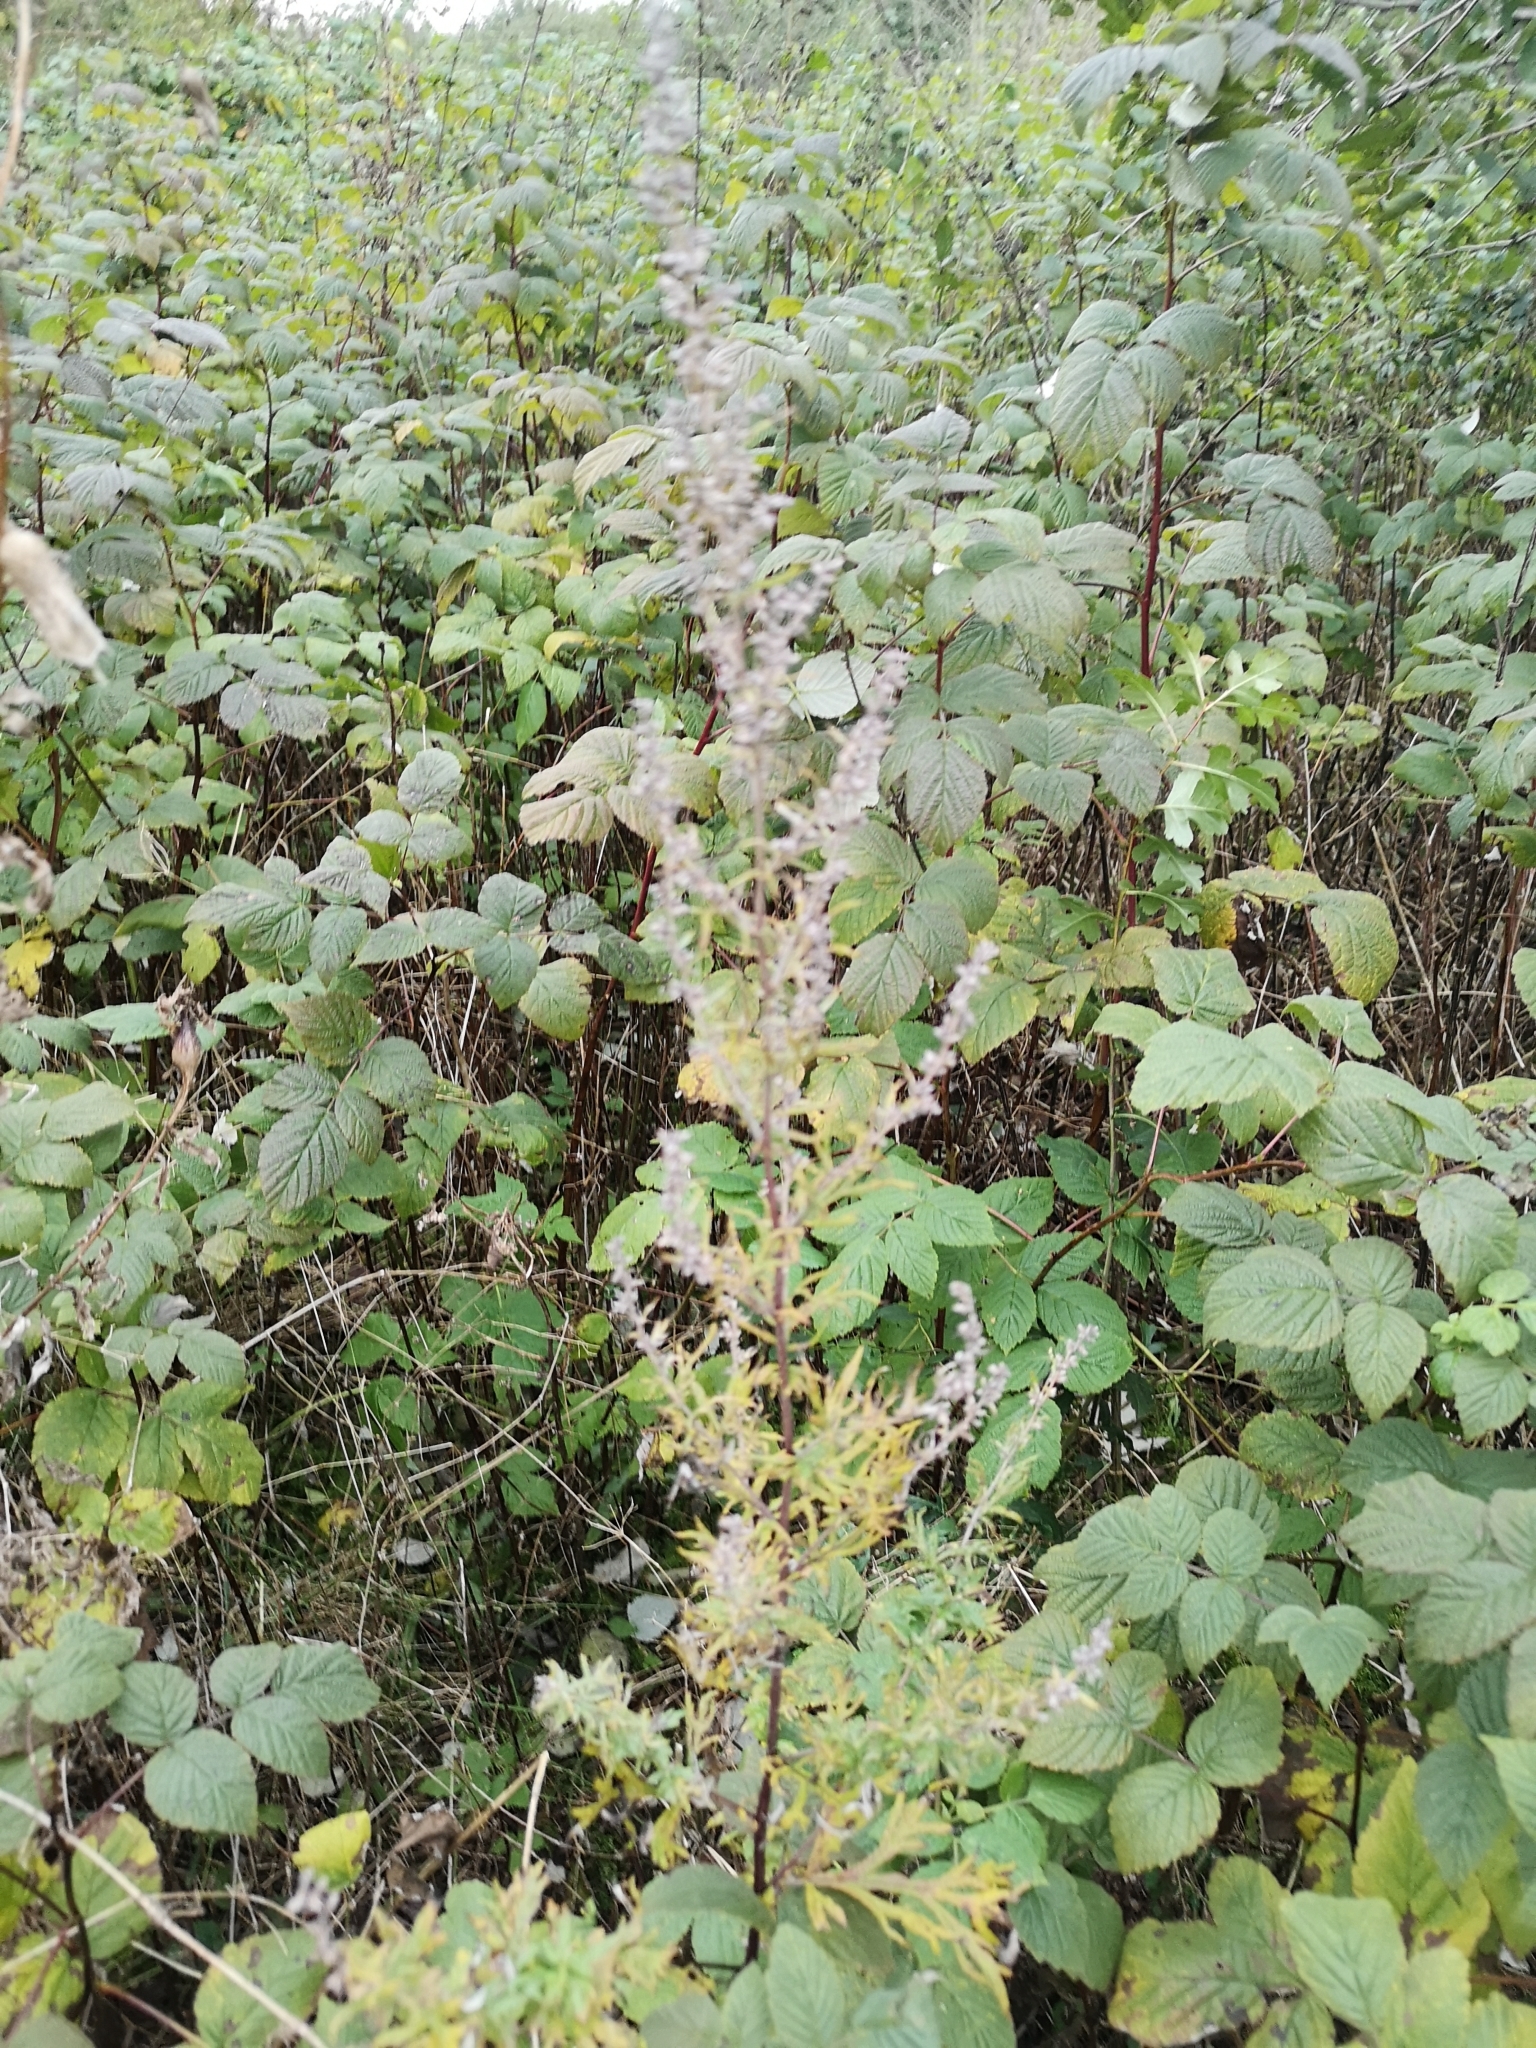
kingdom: Plantae
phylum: Tracheophyta
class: Magnoliopsida
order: Asterales
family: Asteraceae
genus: Artemisia
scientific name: Artemisia vulgaris
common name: Mugwort
